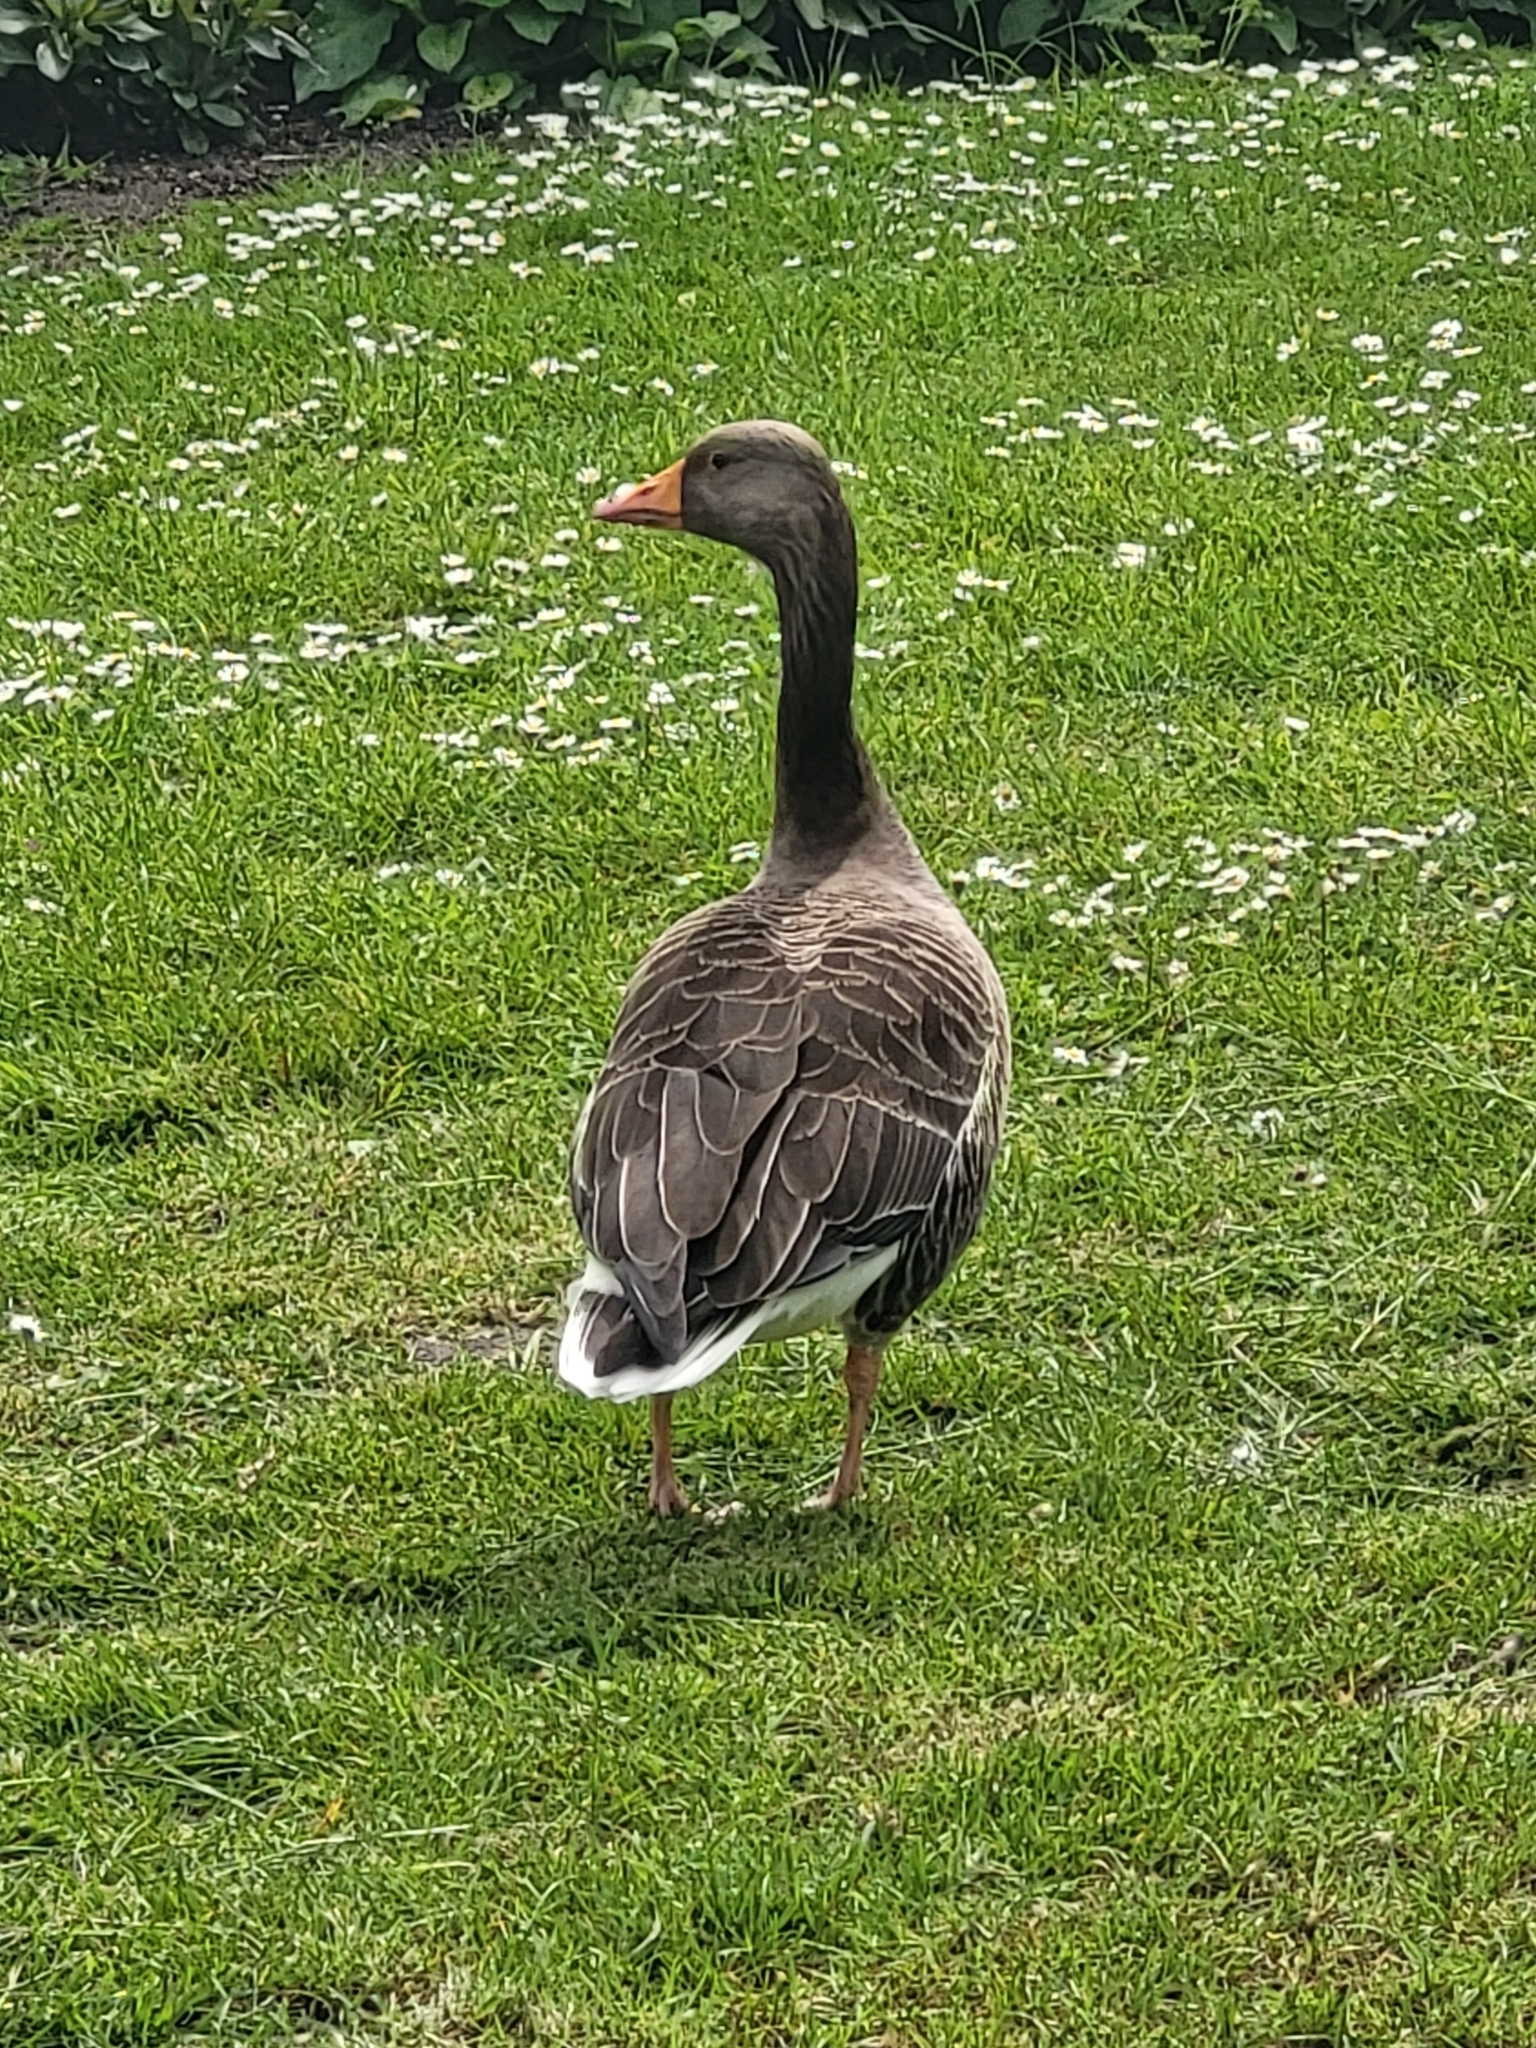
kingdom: Animalia
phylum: Chordata
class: Aves
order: Anseriformes
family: Anatidae
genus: Anser
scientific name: Anser anser
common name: Greylag goose
